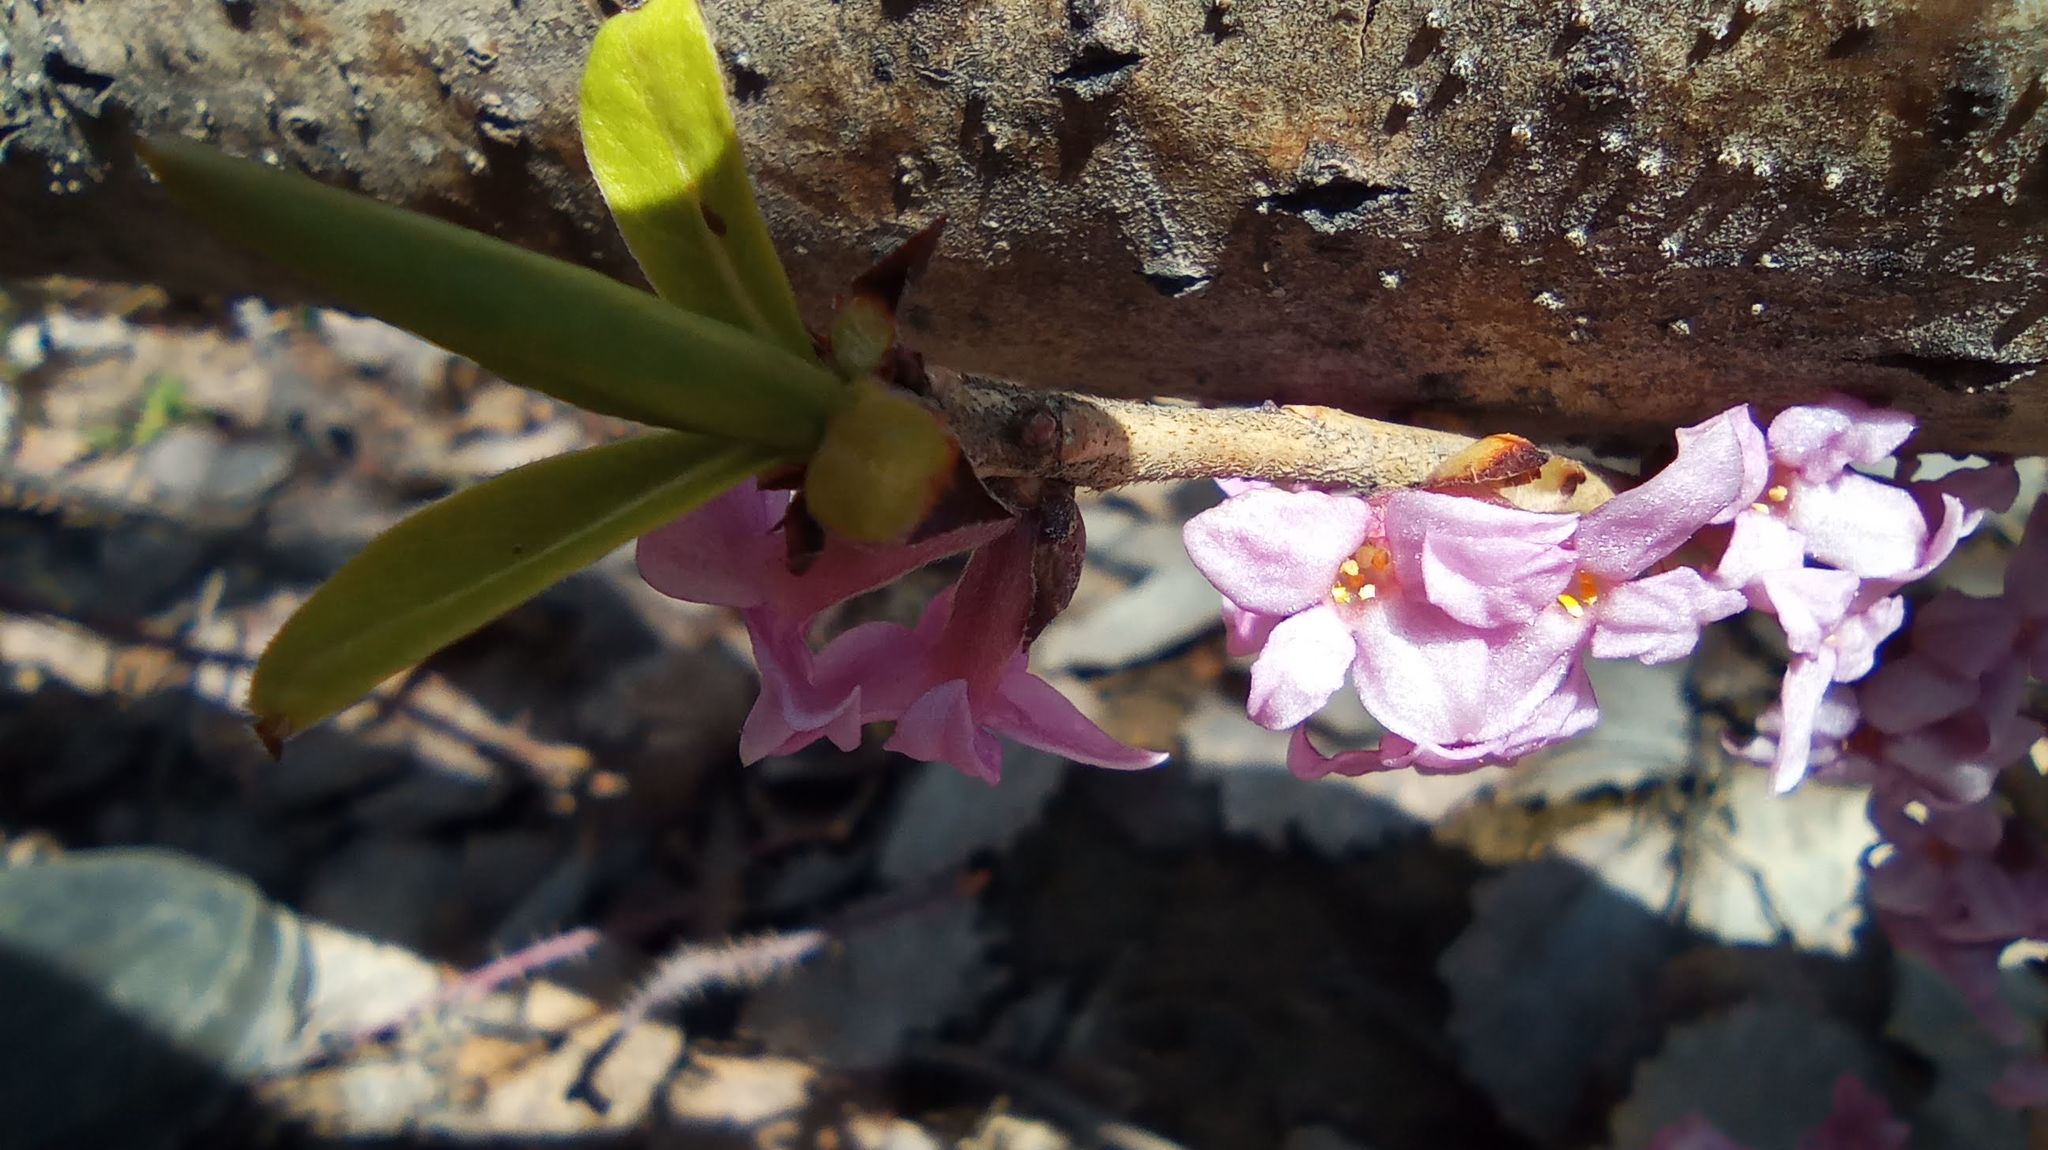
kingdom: Plantae
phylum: Tracheophyta
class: Magnoliopsida
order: Malvales
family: Thymelaeaceae
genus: Daphne
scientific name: Daphne mezereum
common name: Mezereon
